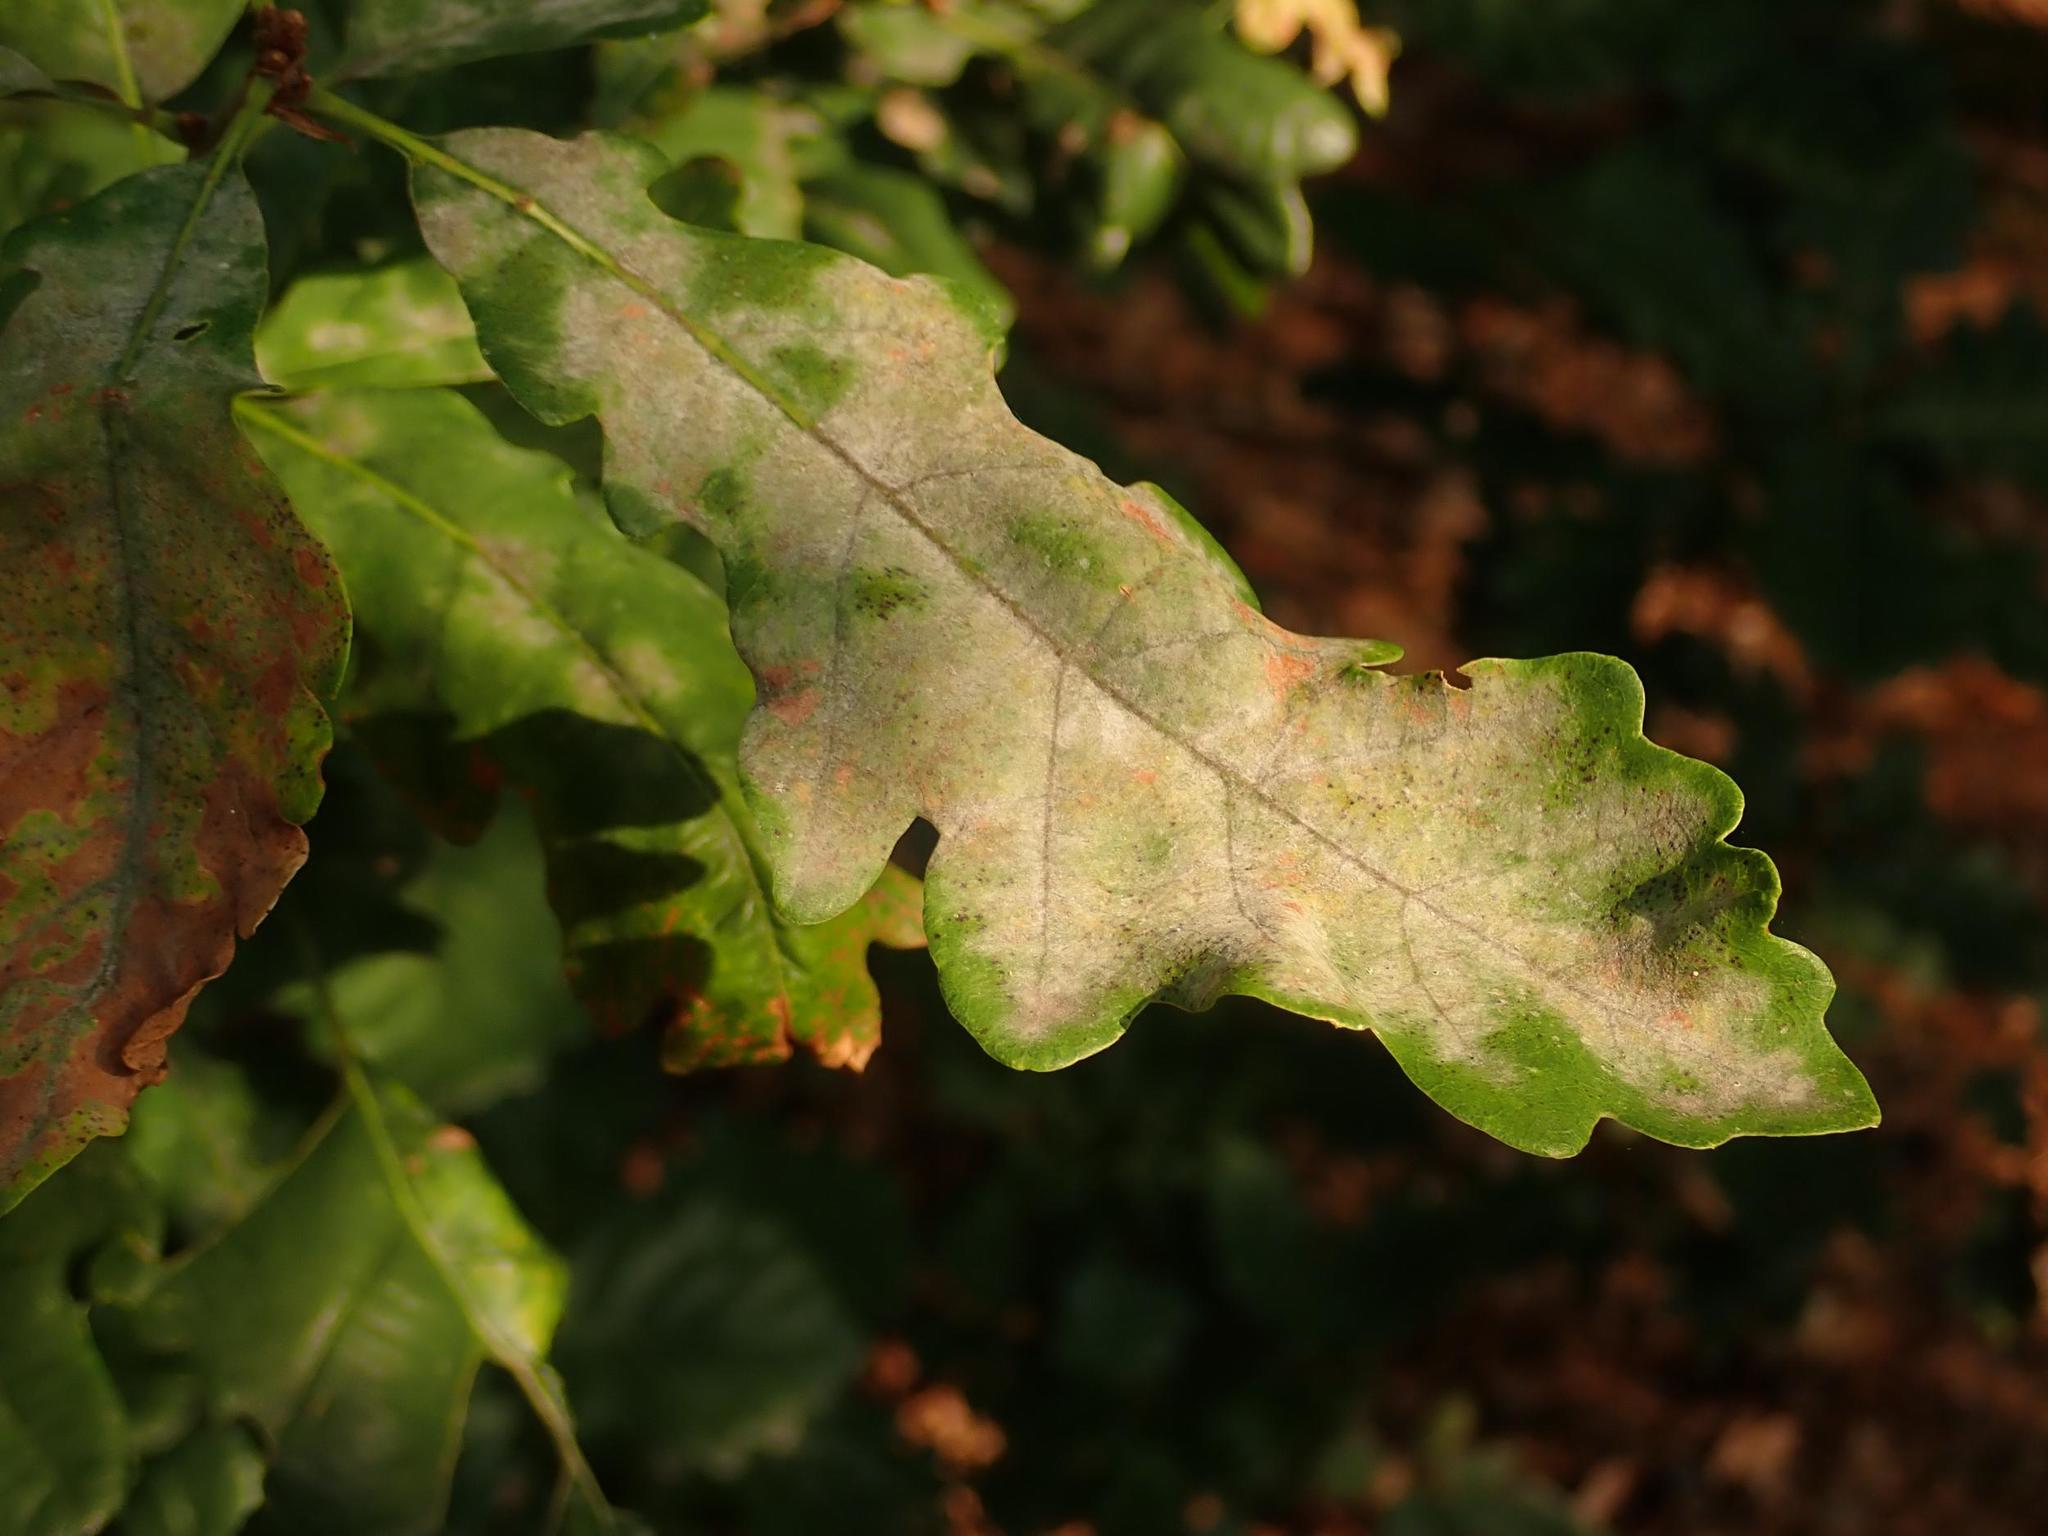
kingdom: Fungi
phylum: Ascomycota
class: Leotiomycetes
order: Helotiales
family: Erysiphaceae
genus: Erysiphe
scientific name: Erysiphe
